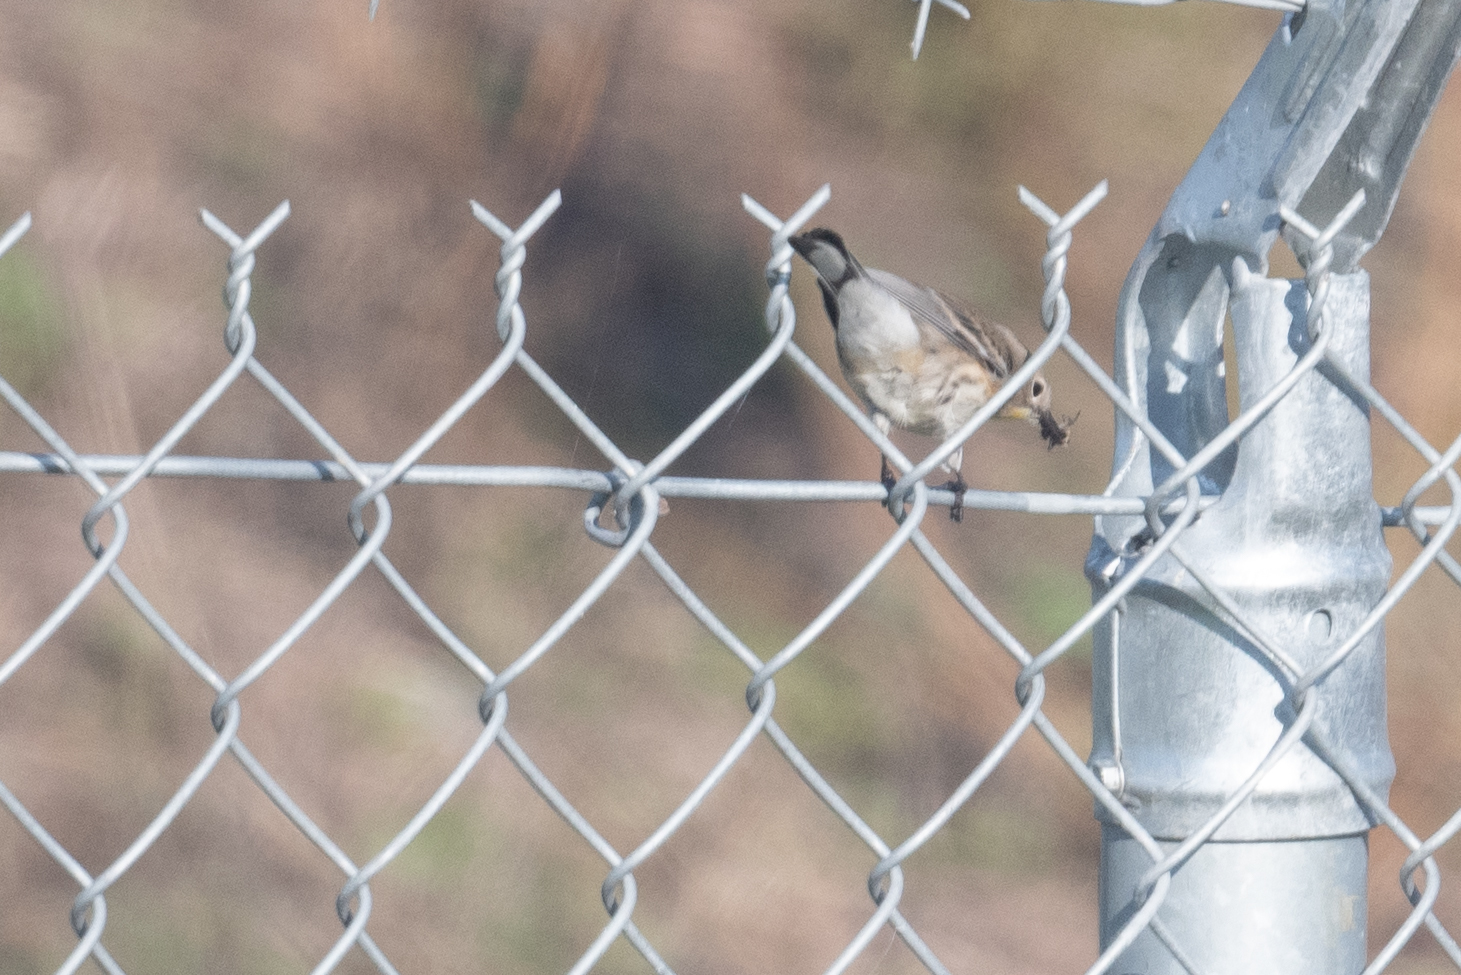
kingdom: Animalia
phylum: Chordata
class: Aves
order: Passeriformes
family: Parulidae
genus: Setophaga
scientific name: Setophaga coronata
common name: Myrtle warbler
